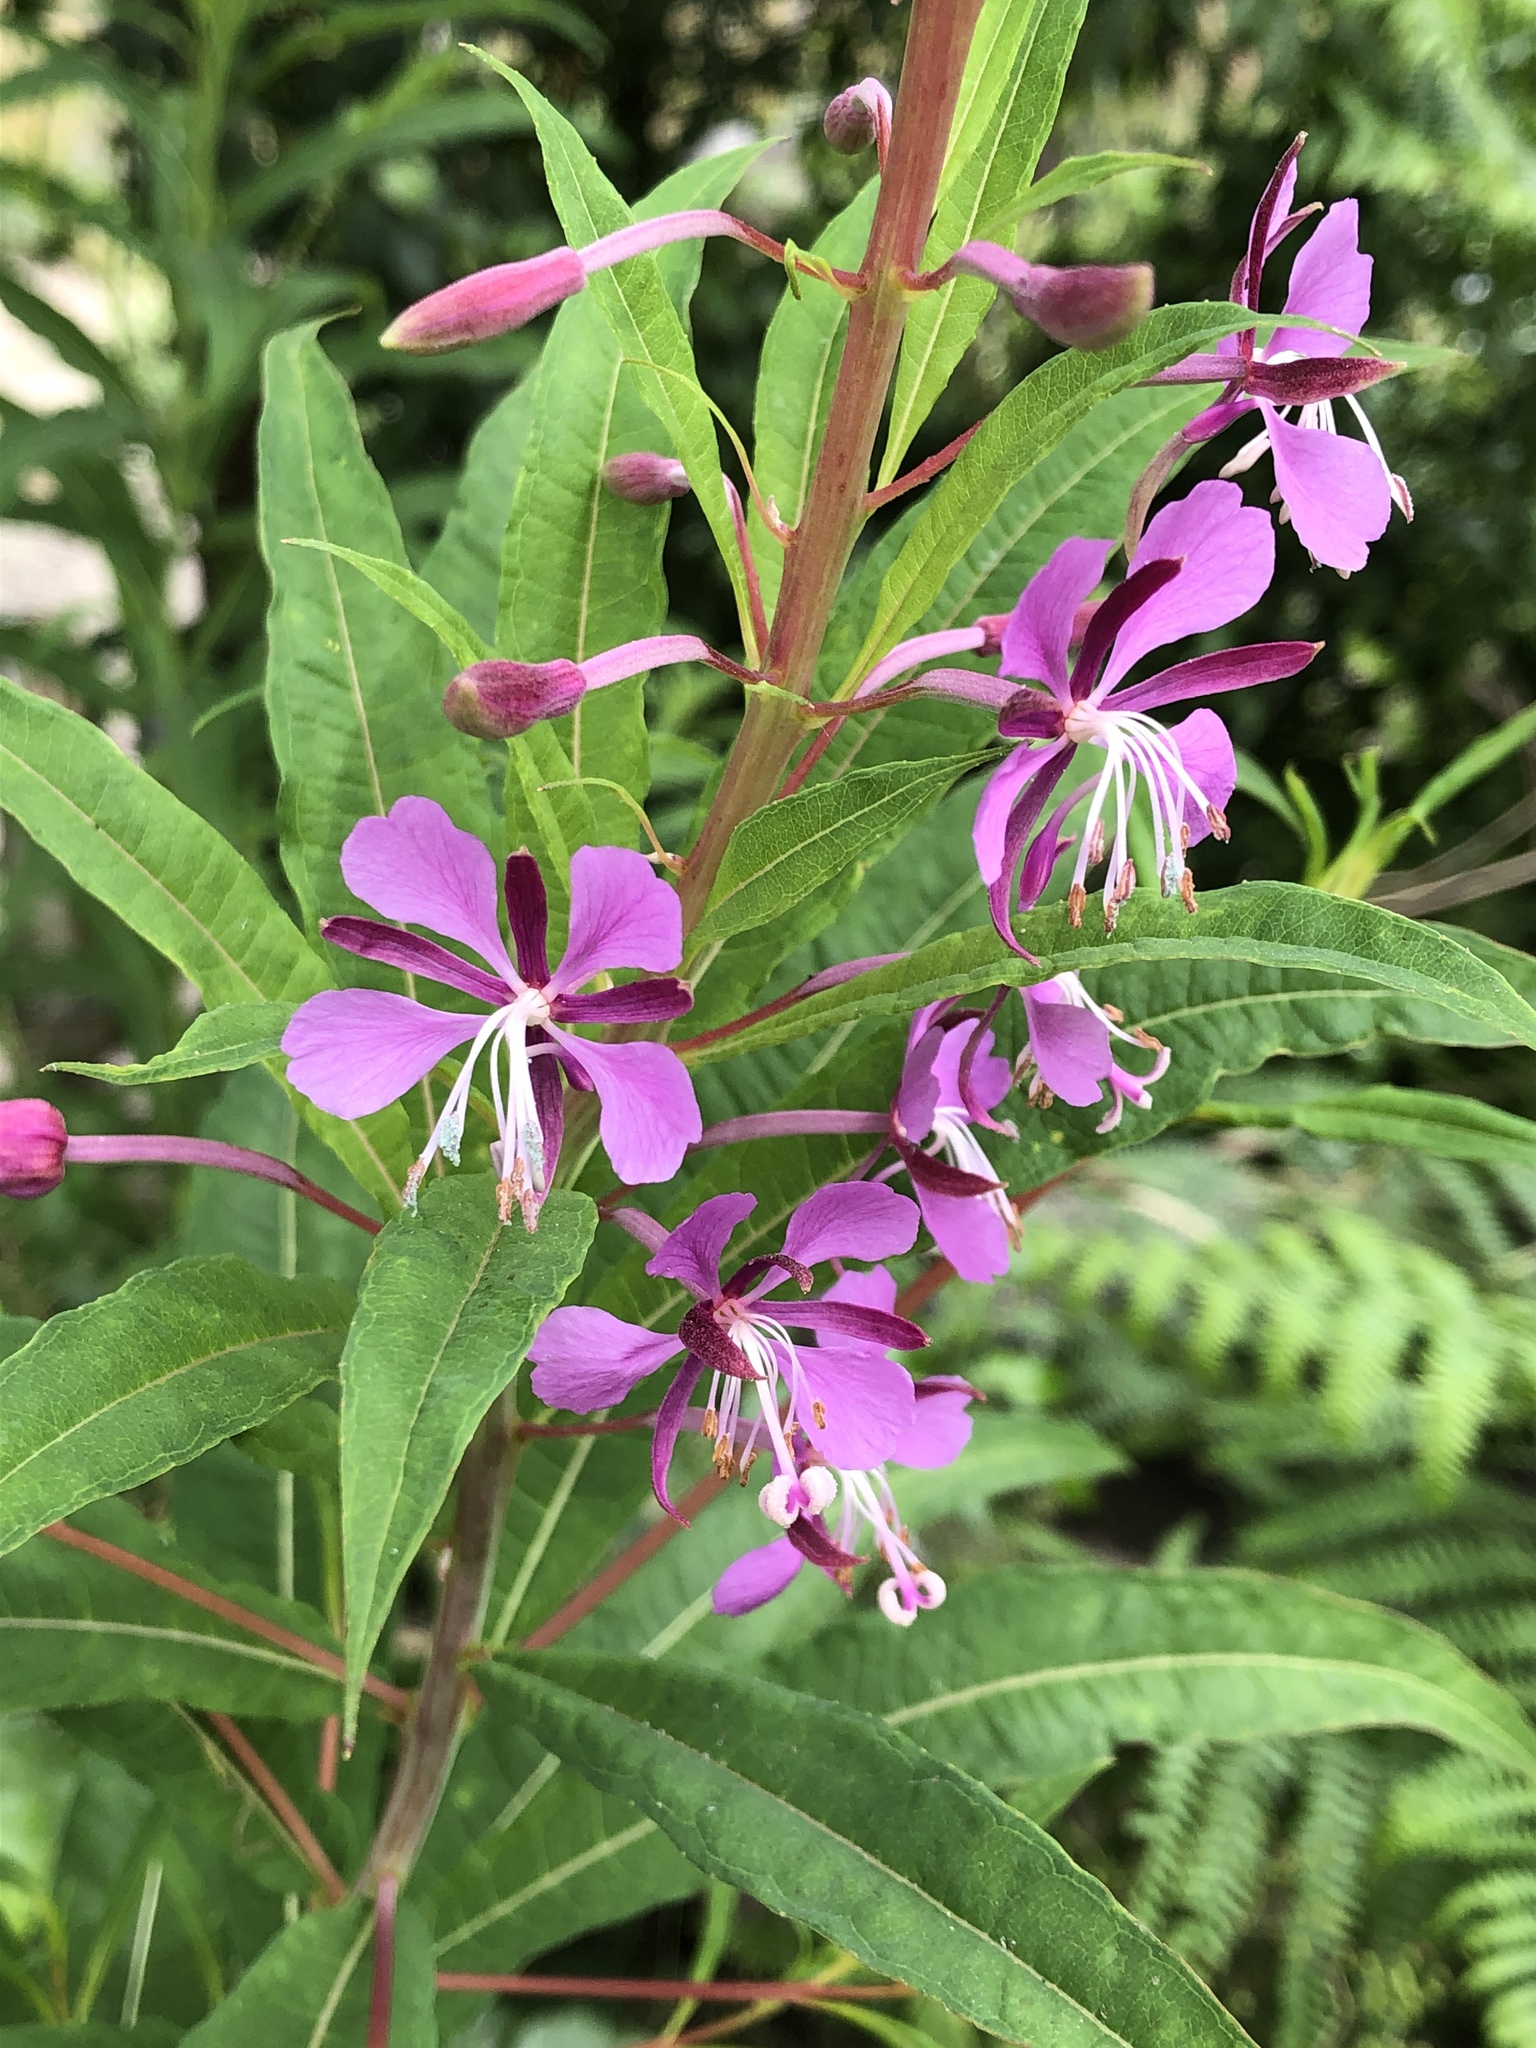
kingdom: Plantae
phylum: Tracheophyta
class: Magnoliopsida
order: Myrtales
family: Onagraceae
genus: Chamaenerion
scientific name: Chamaenerion angustifolium
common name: Fireweed
